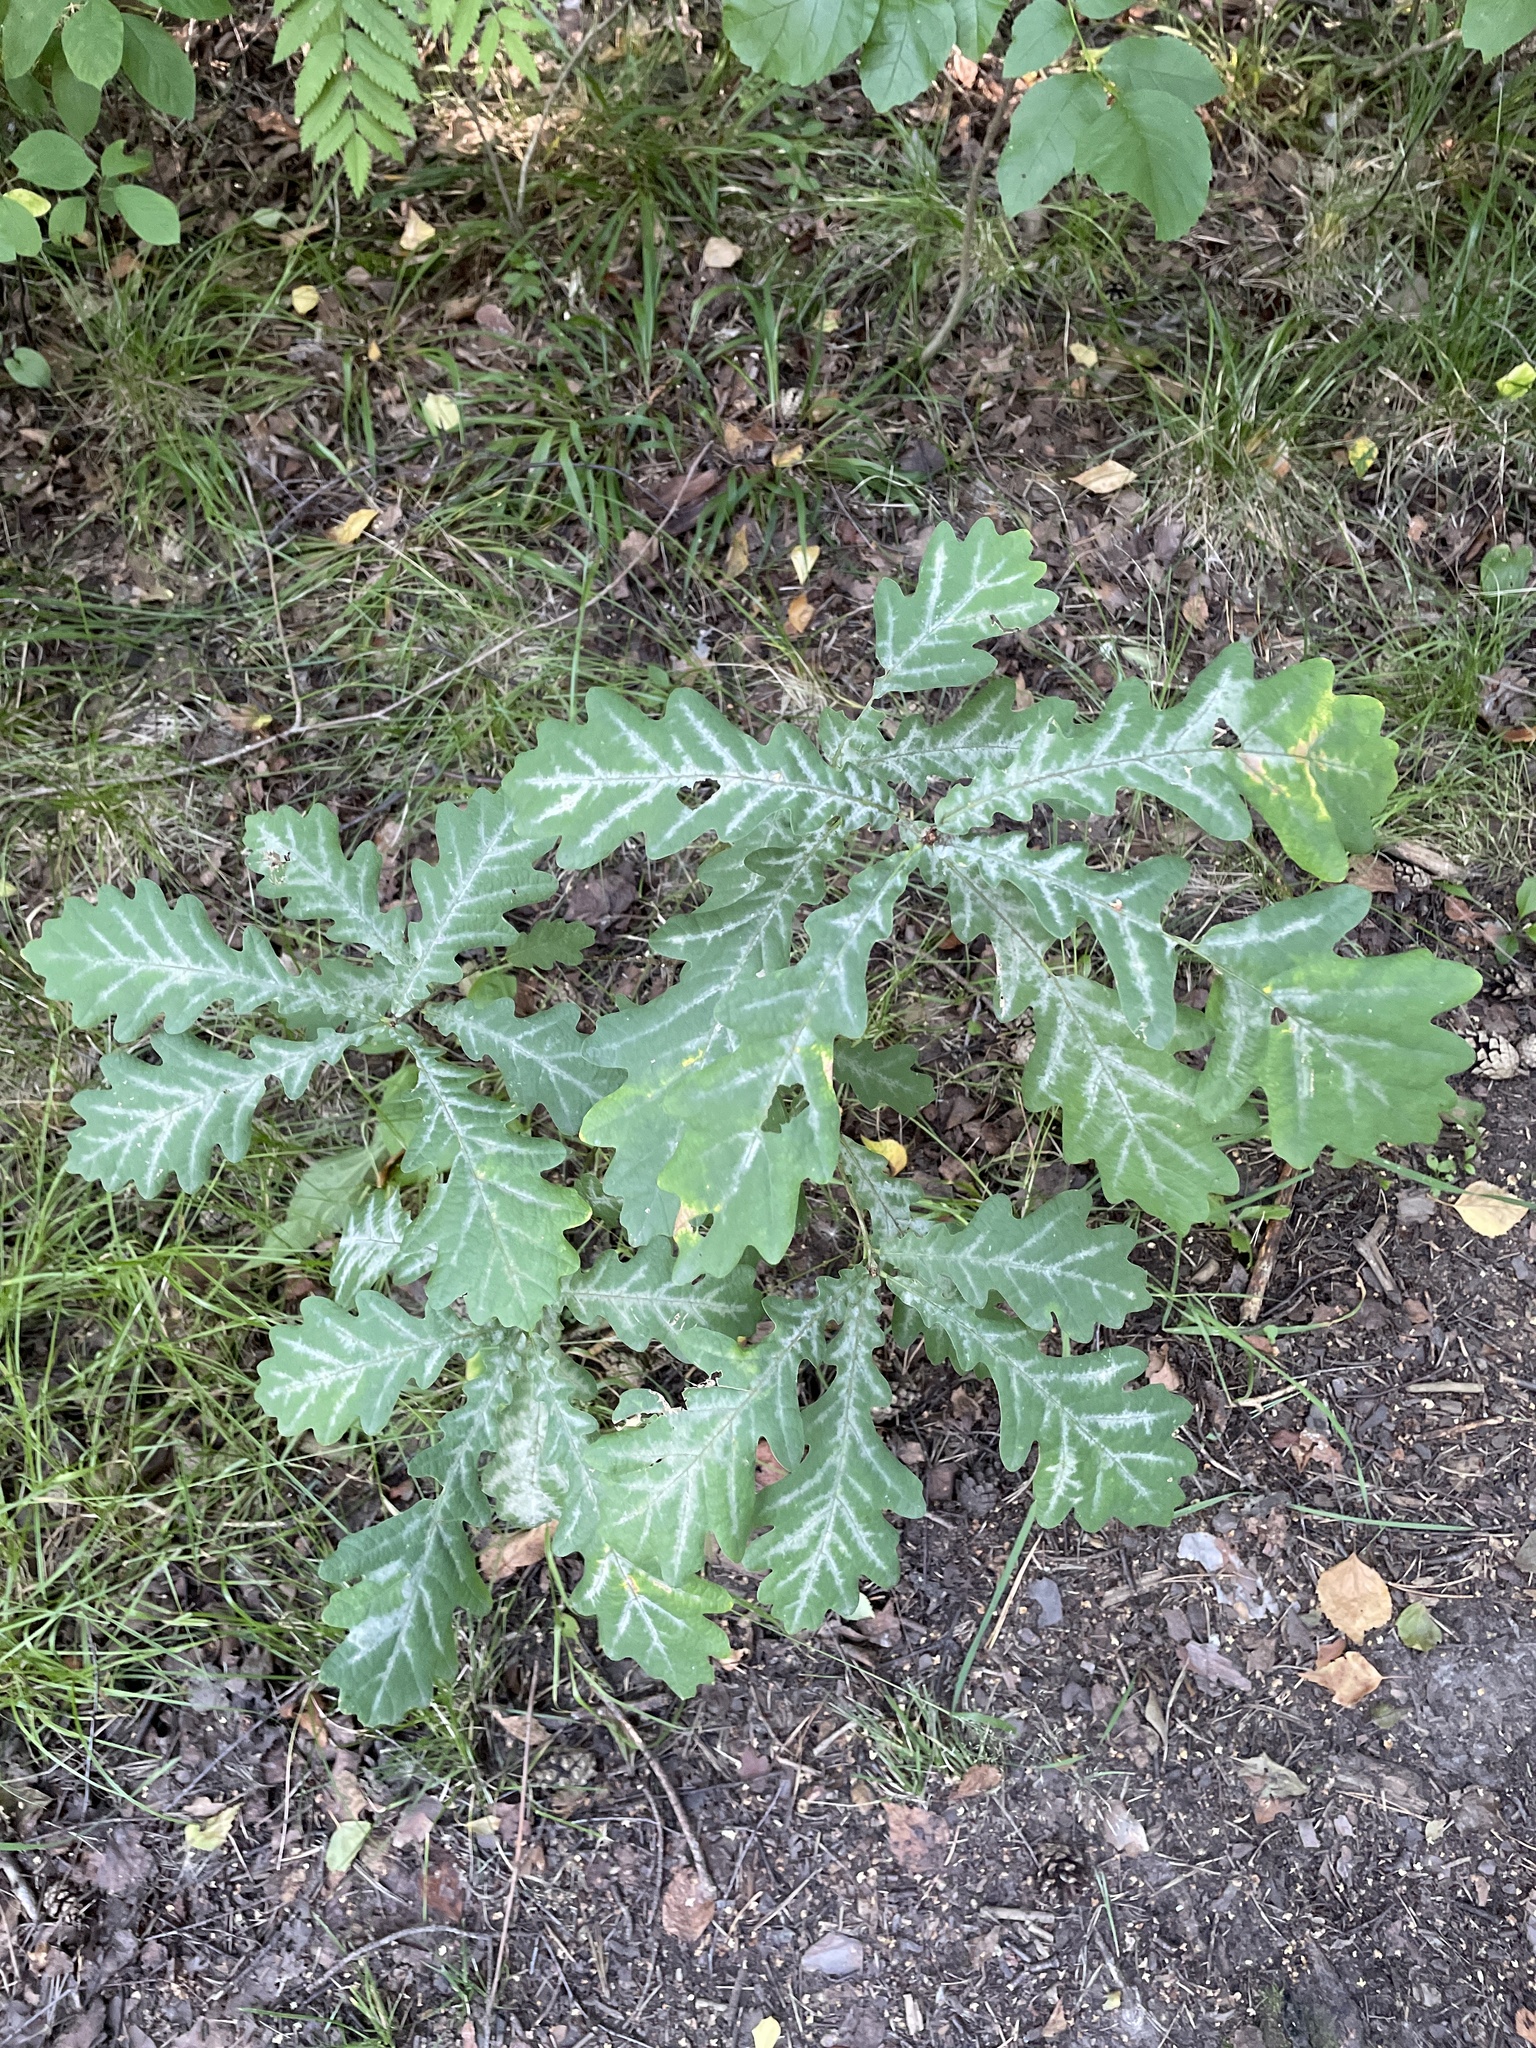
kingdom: Plantae
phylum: Tracheophyta
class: Magnoliopsida
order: Fagales
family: Fagaceae
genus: Quercus
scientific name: Quercus robur
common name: Pedunculate oak
